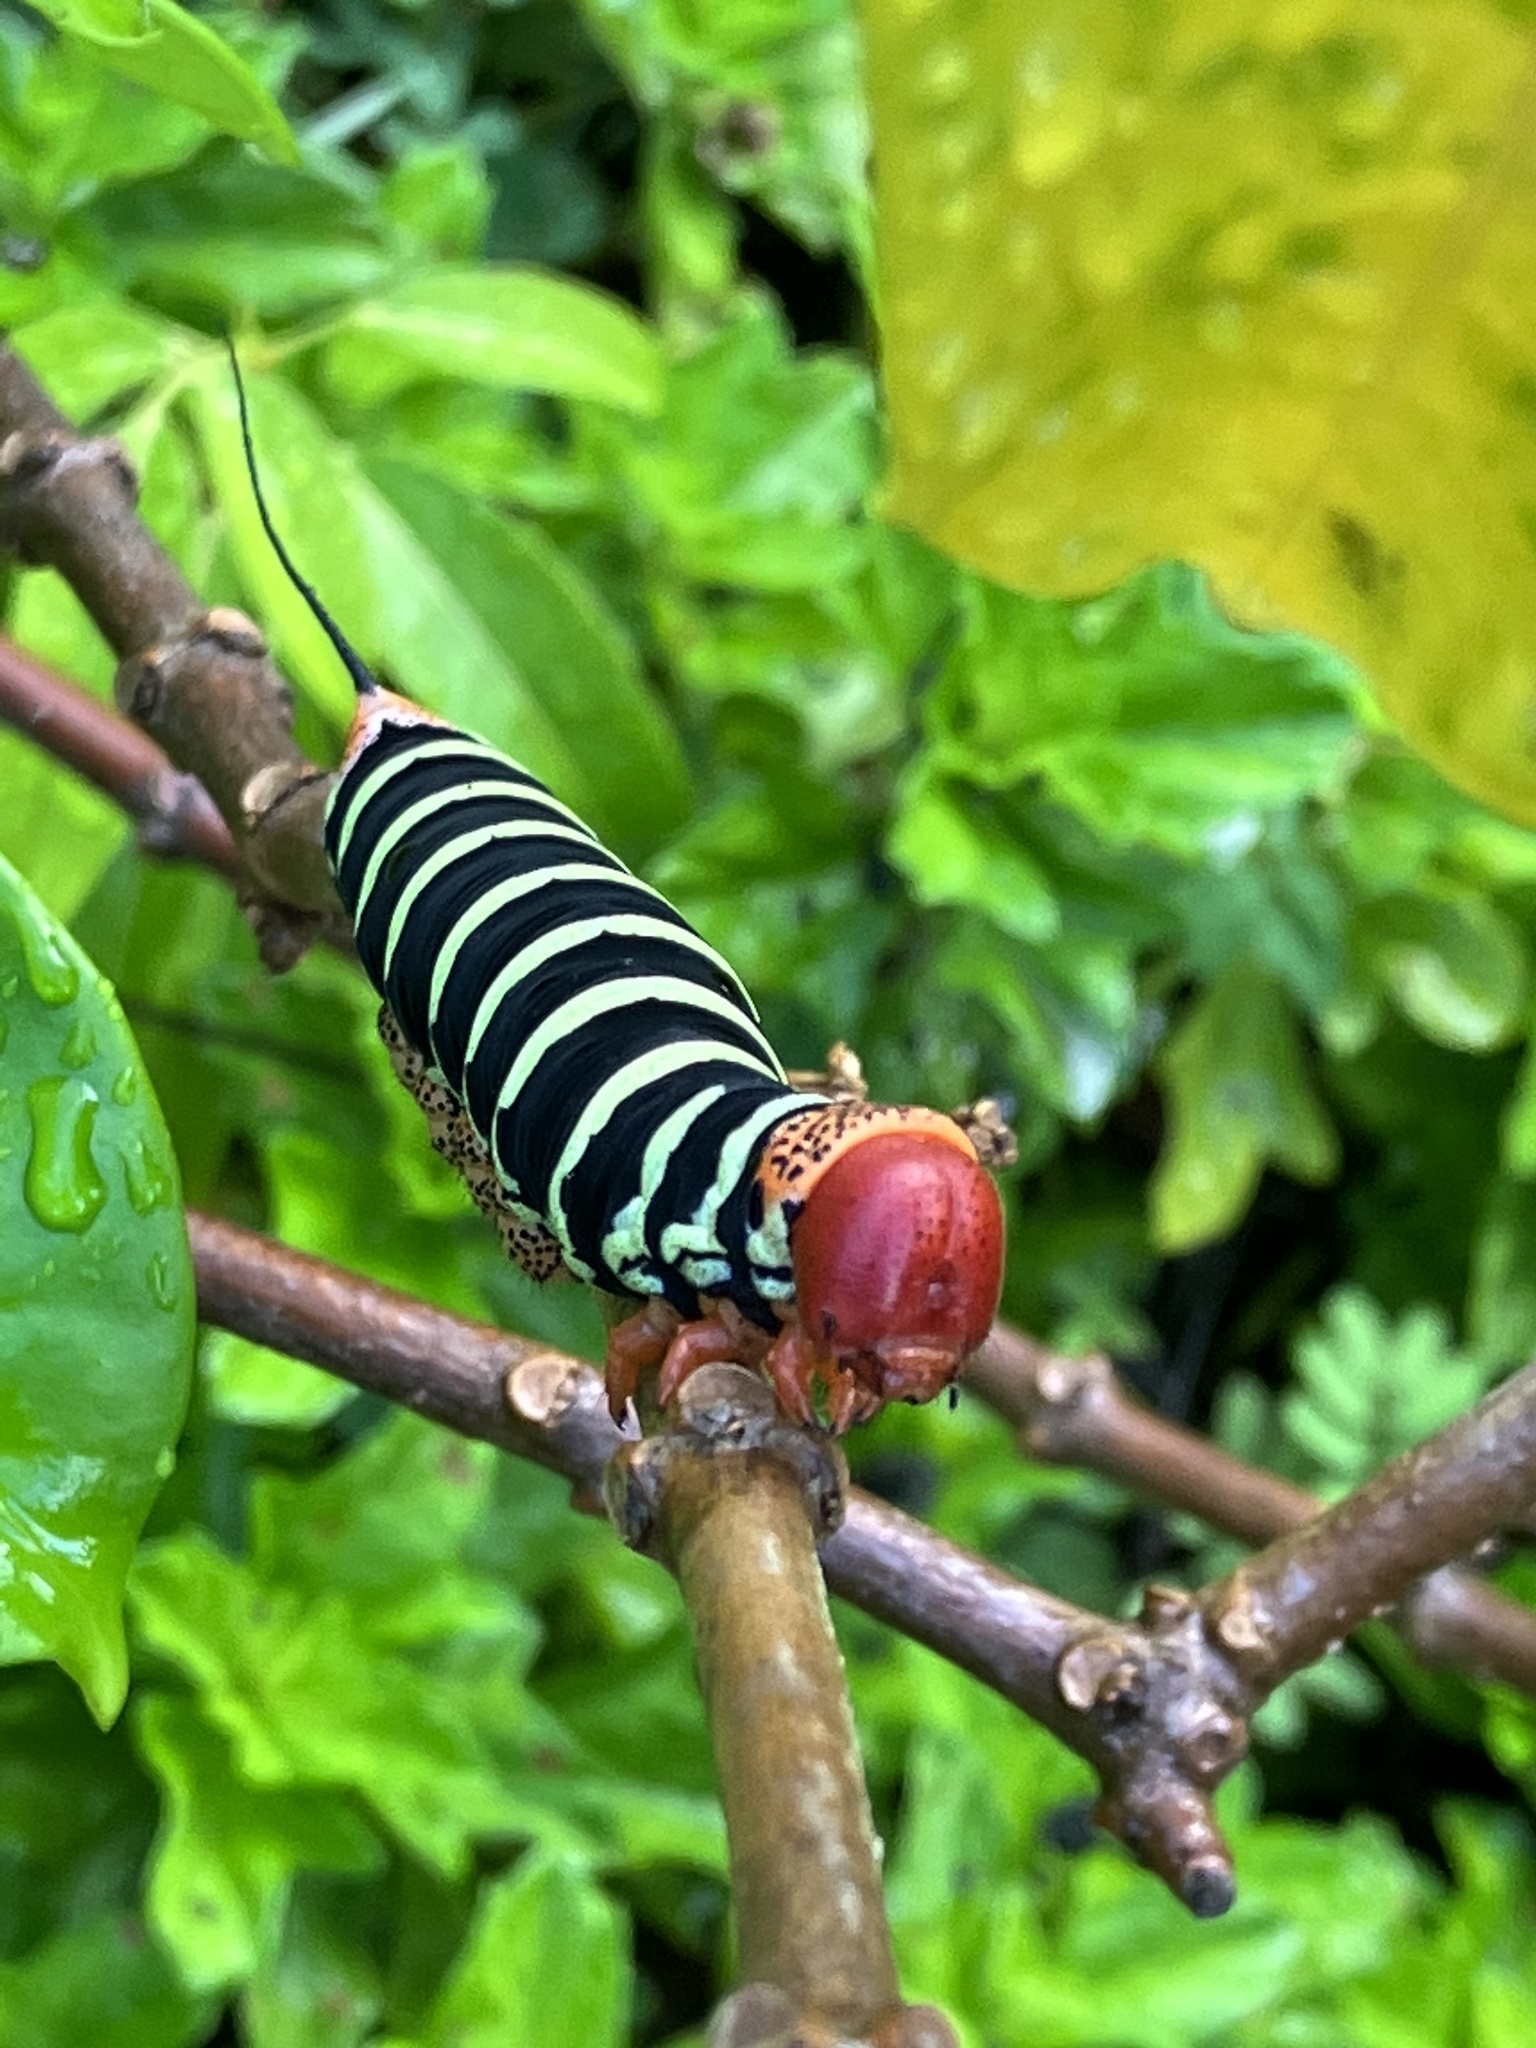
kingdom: Animalia
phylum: Arthropoda
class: Insecta
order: Lepidoptera
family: Sphingidae
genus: Pseudosphinx
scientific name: Pseudosphinx tetrio
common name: Tetrio sphinx
